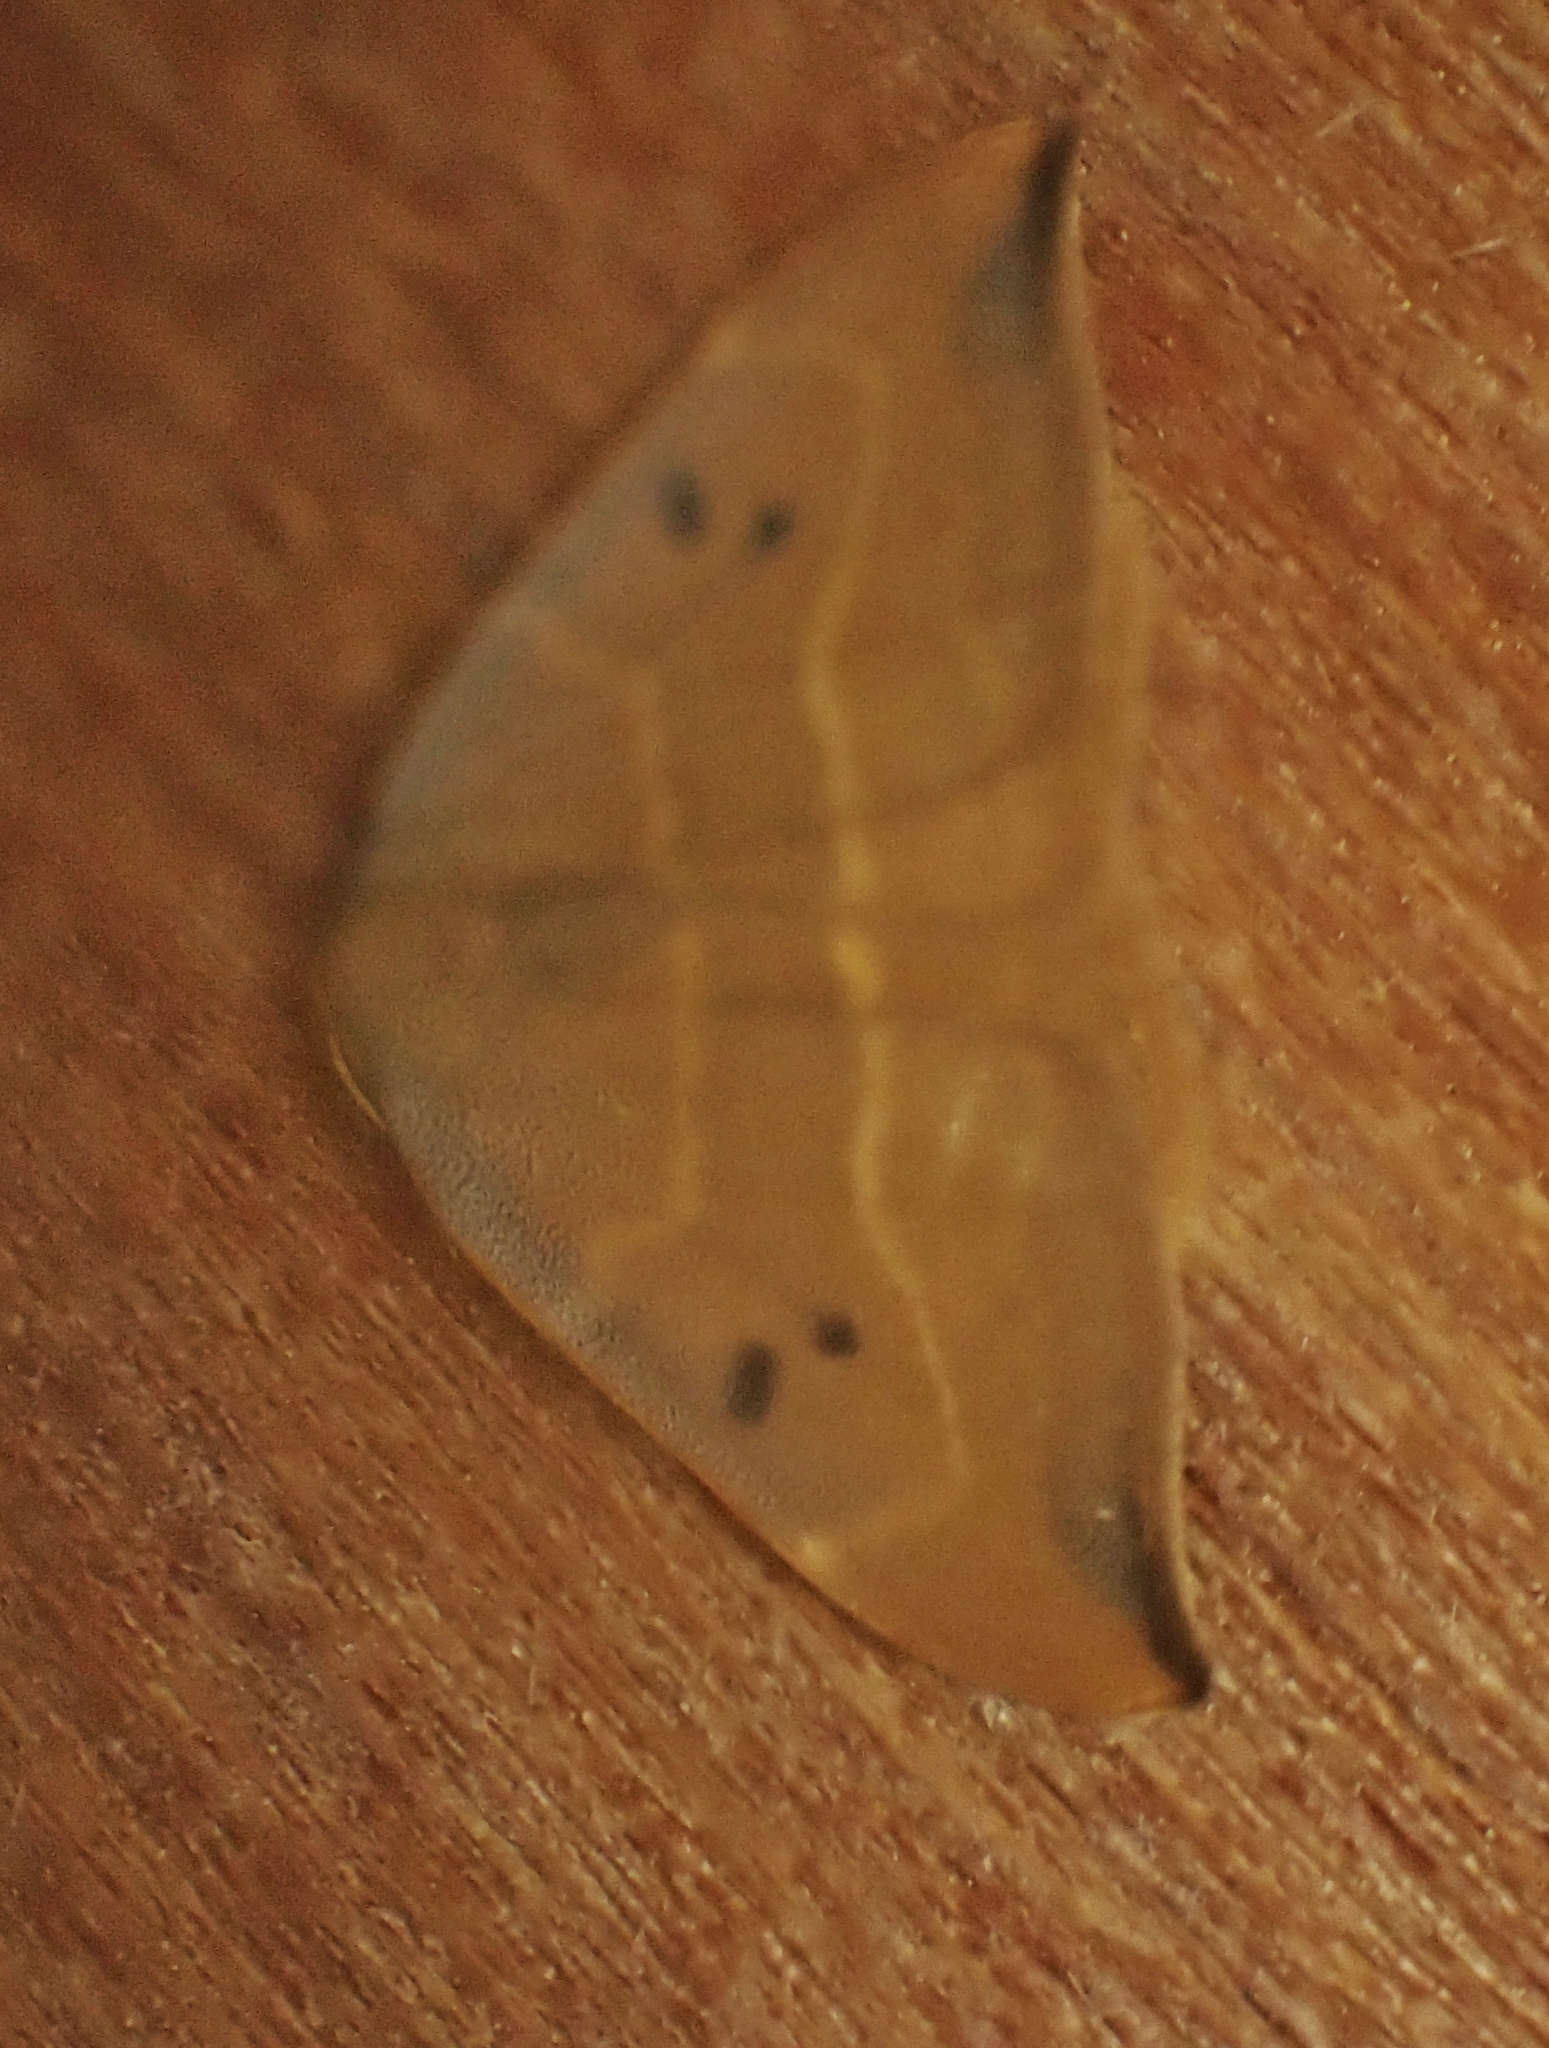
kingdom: Animalia
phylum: Arthropoda
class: Insecta
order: Lepidoptera
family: Drepanidae
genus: Watsonalla
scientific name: Watsonalla binaria
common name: Oak hook-tip
